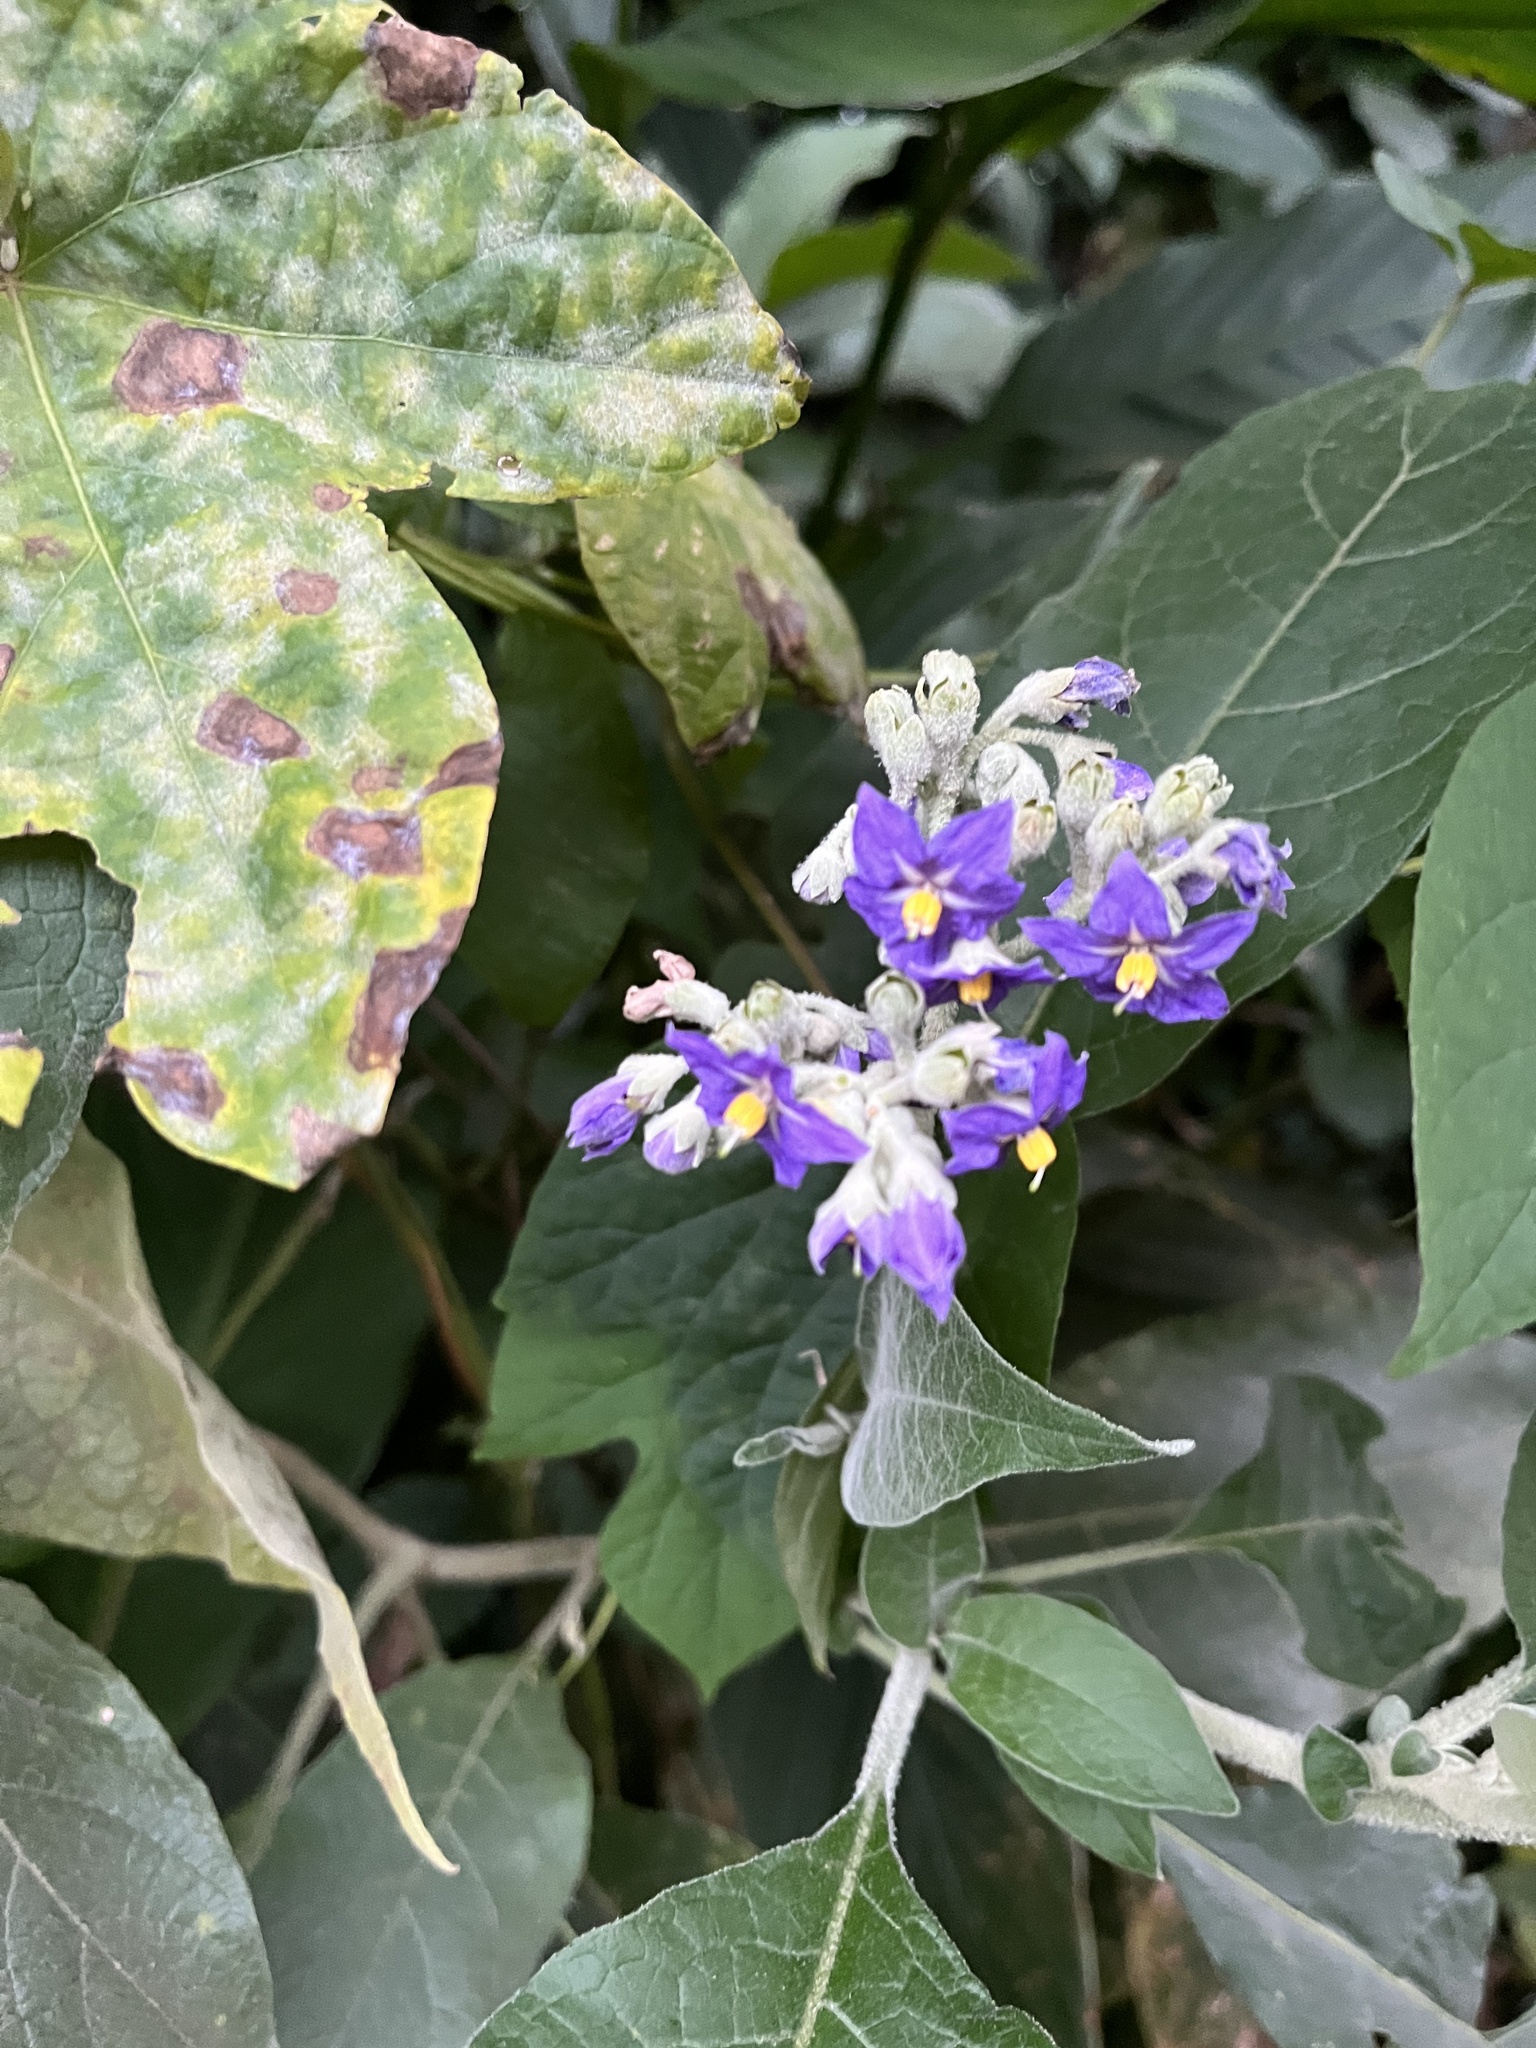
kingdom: Plantae
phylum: Tracheophyta
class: Magnoliopsida
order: Solanales
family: Solanaceae
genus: Solanum
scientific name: Solanum mauritianum
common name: Earleaf nightshade
